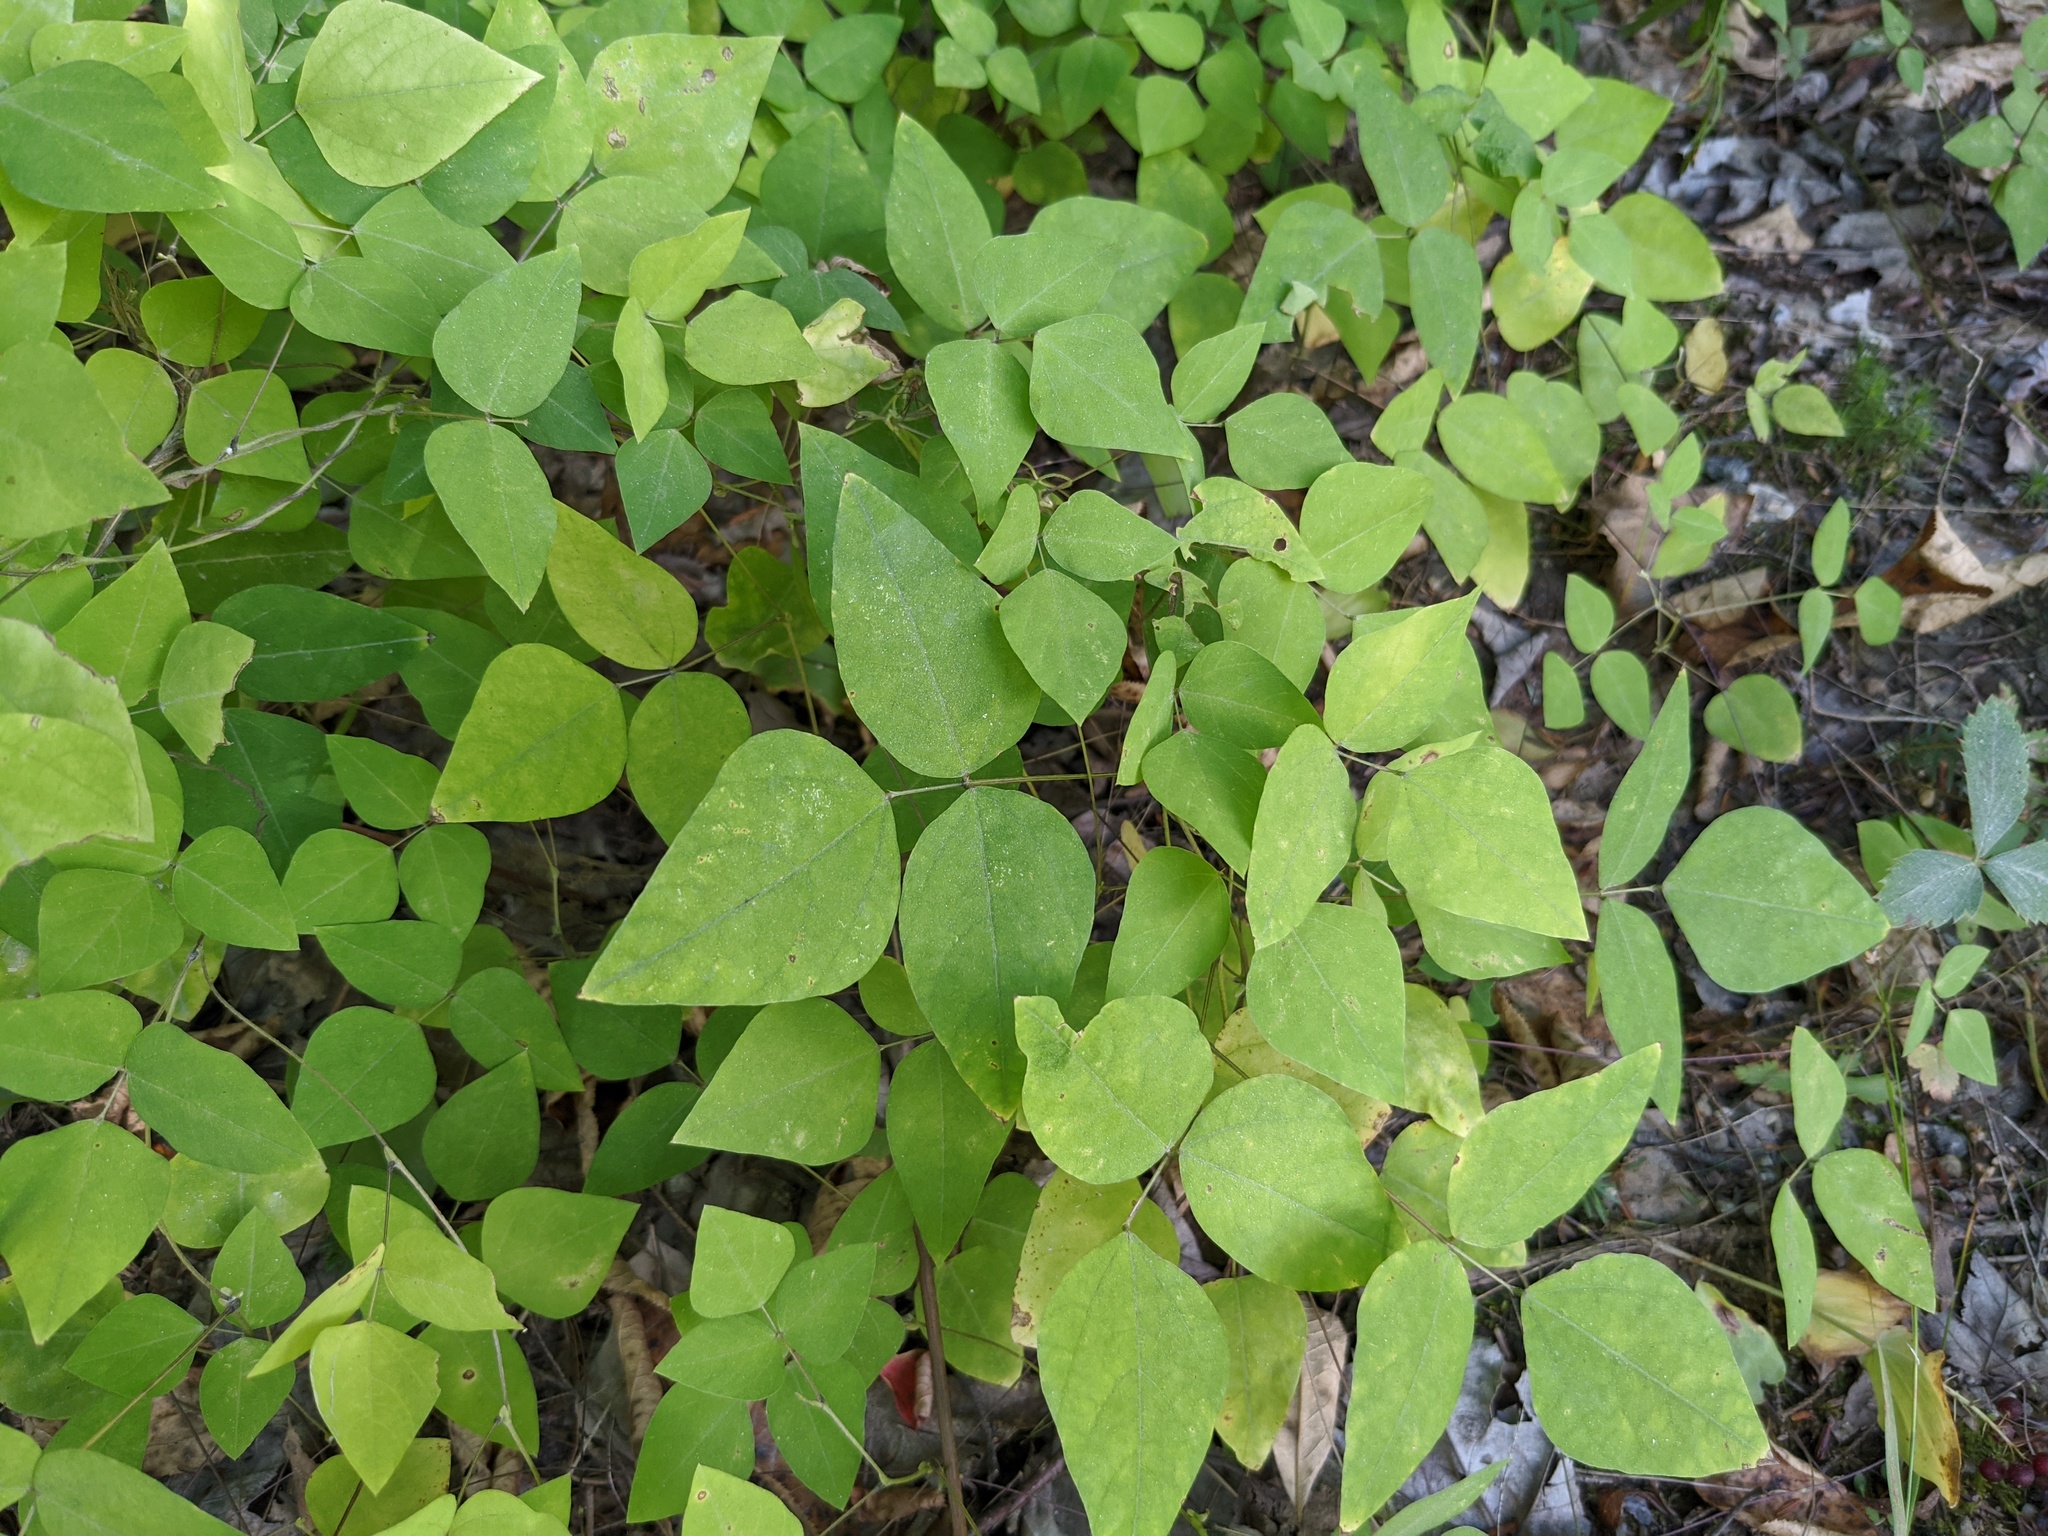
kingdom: Plantae
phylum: Tracheophyta
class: Magnoliopsida
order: Fabales
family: Fabaceae
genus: Amphicarpaea
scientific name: Amphicarpaea bracteata
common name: American hog peanut
